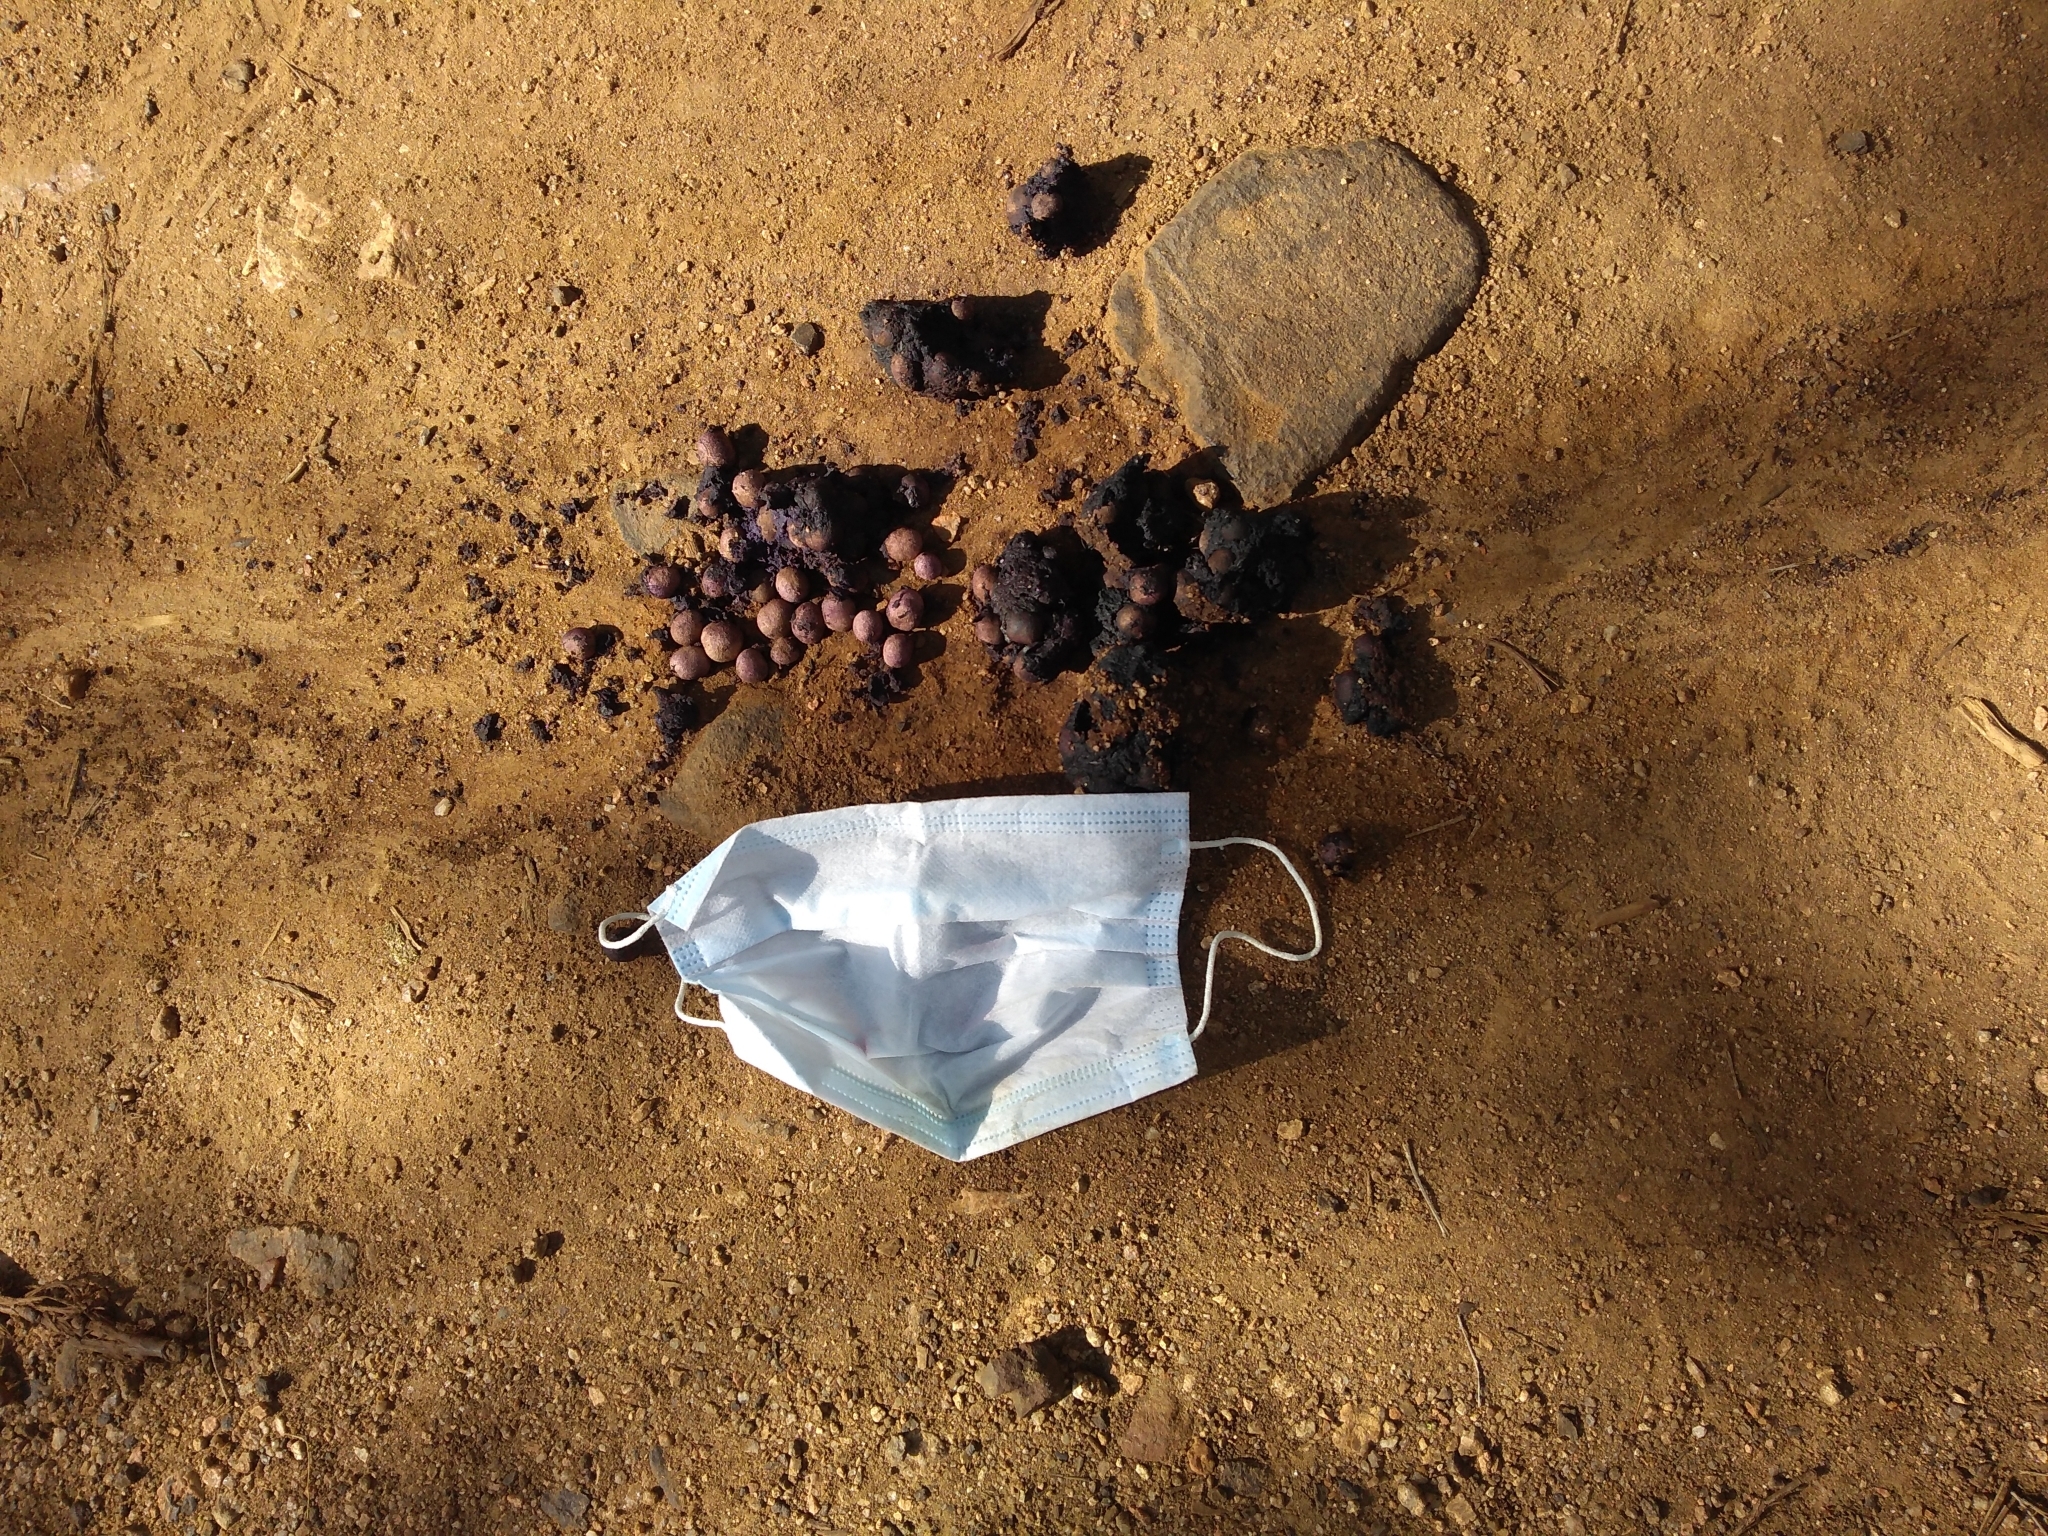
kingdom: Animalia
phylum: Chordata
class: Mammalia
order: Carnivora
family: Ursidae
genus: Melursus
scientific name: Melursus ursinus
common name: Sloth bear
